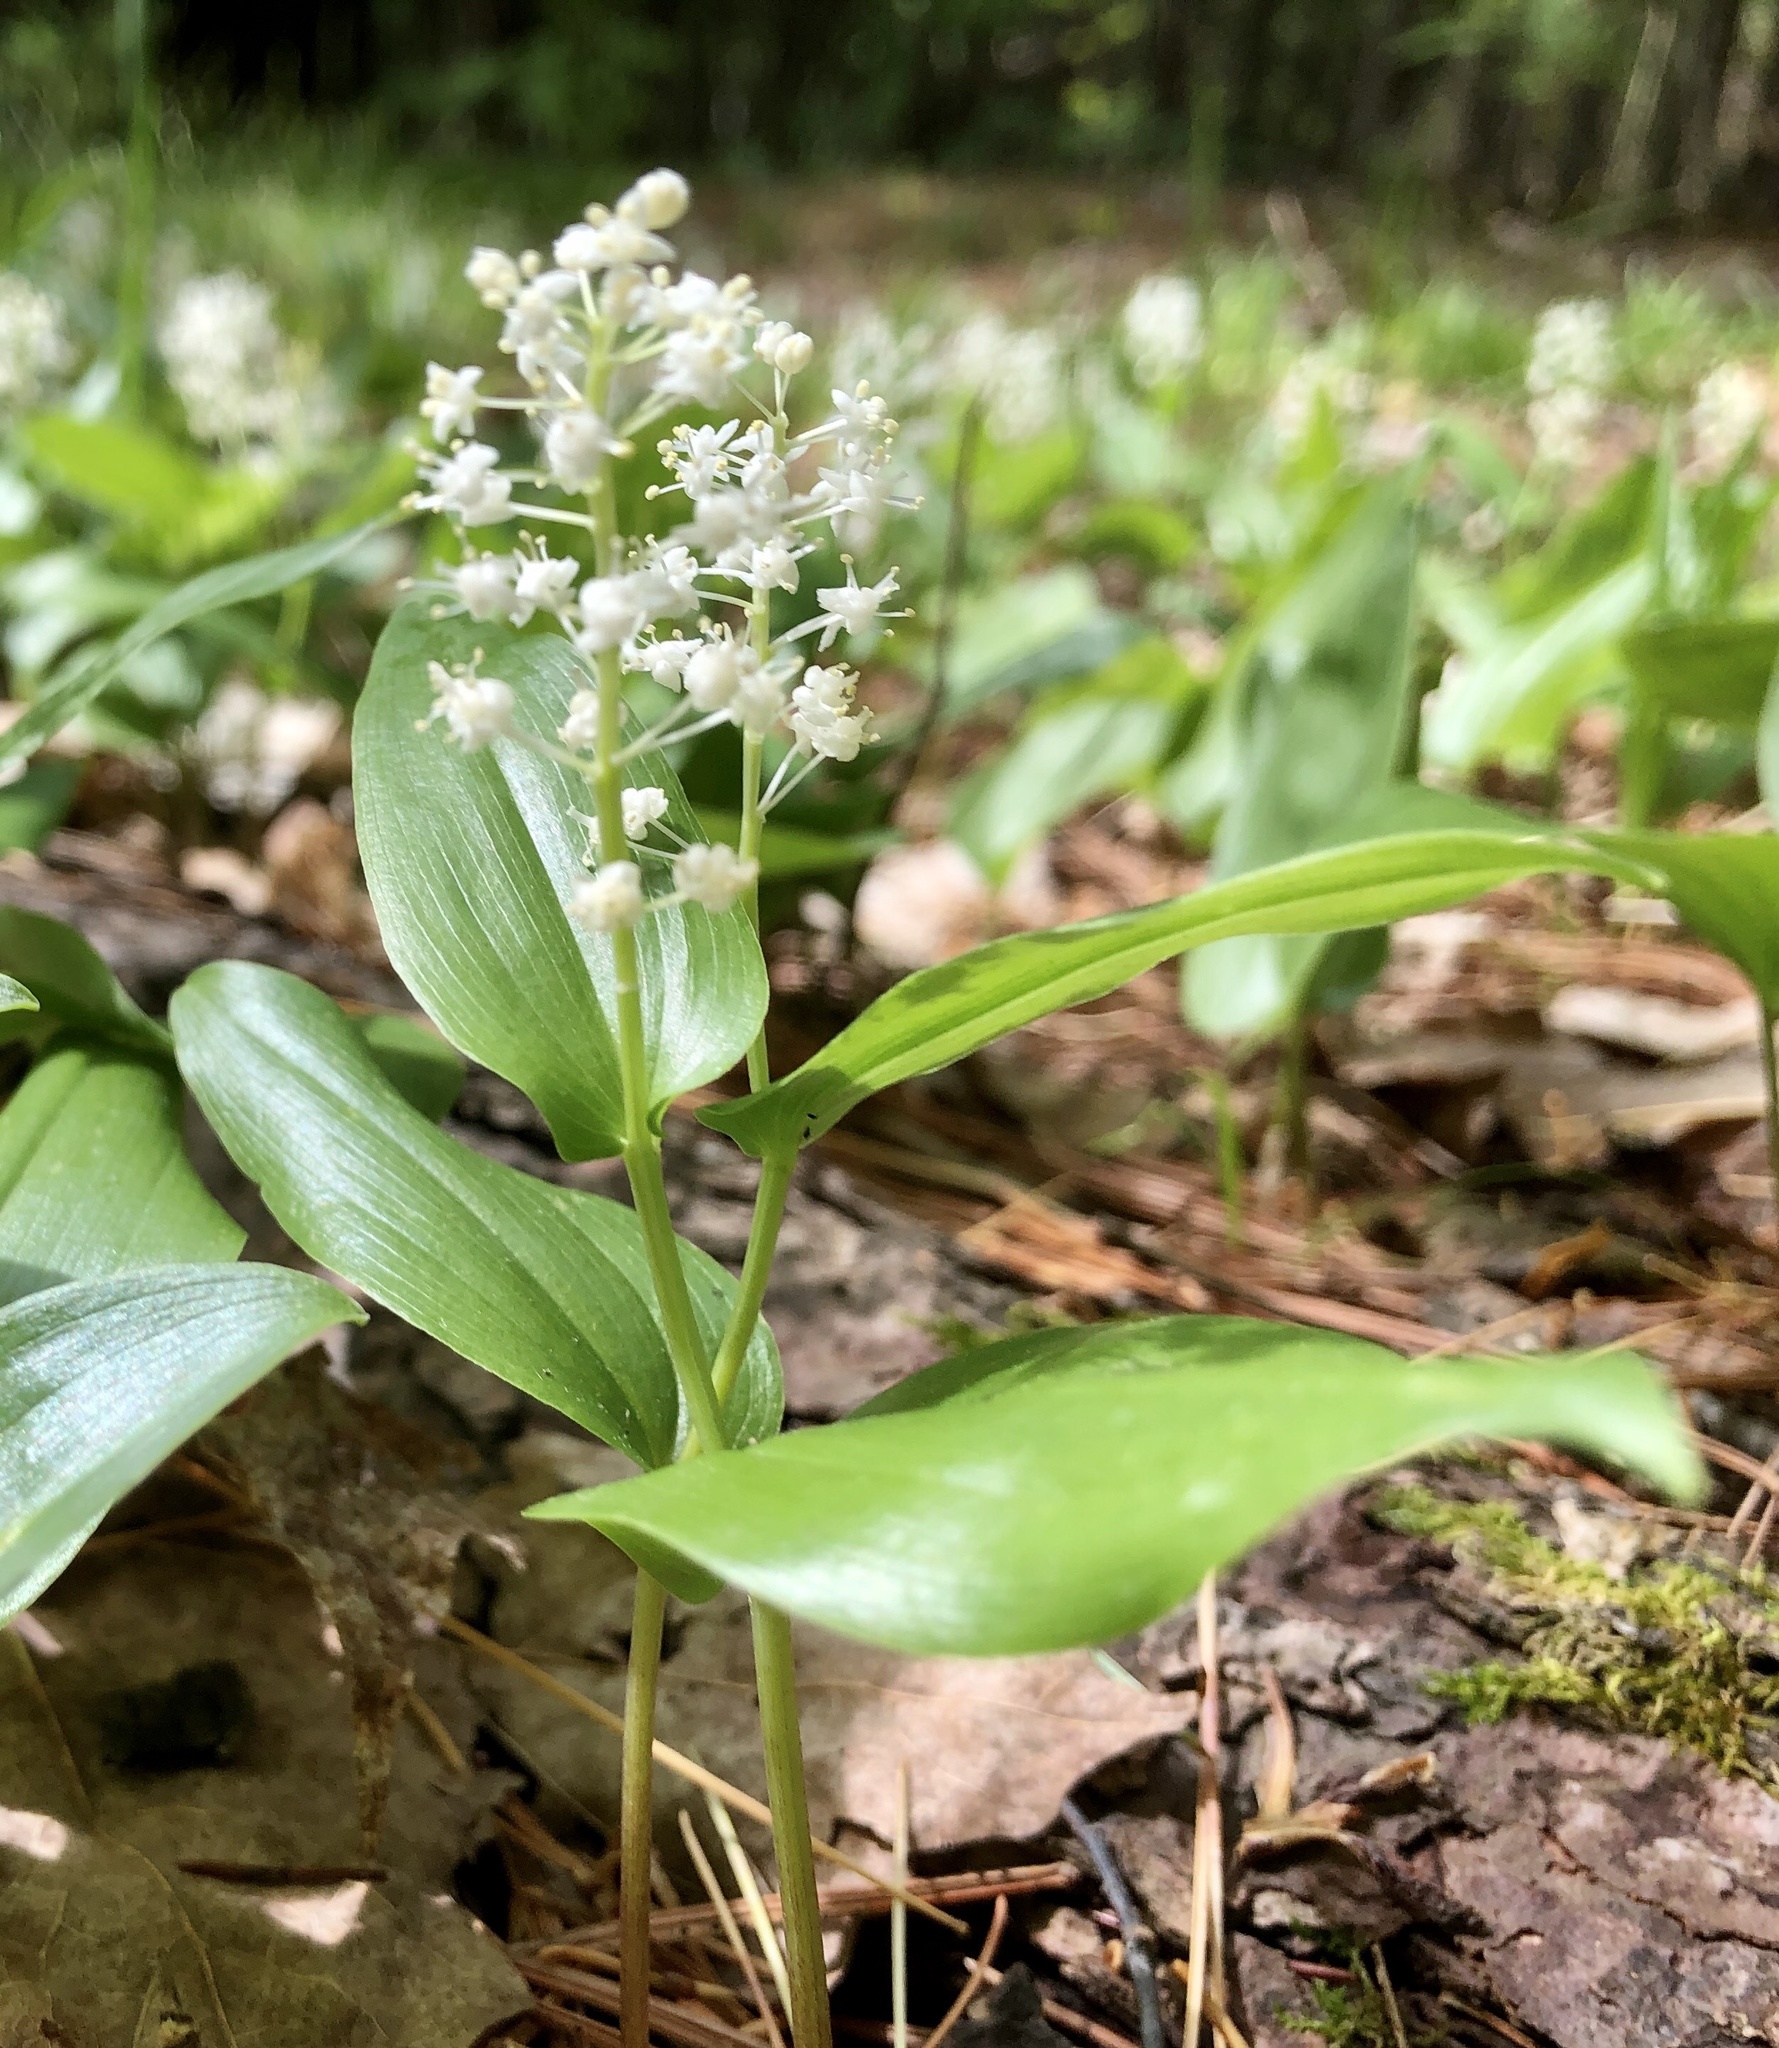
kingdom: Plantae
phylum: Tracheophyta
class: Liliopsida
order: Asparagales
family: Asparagaceae
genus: Maianthemum
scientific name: Maianthemum canadense
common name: False lily-of-the-valley
